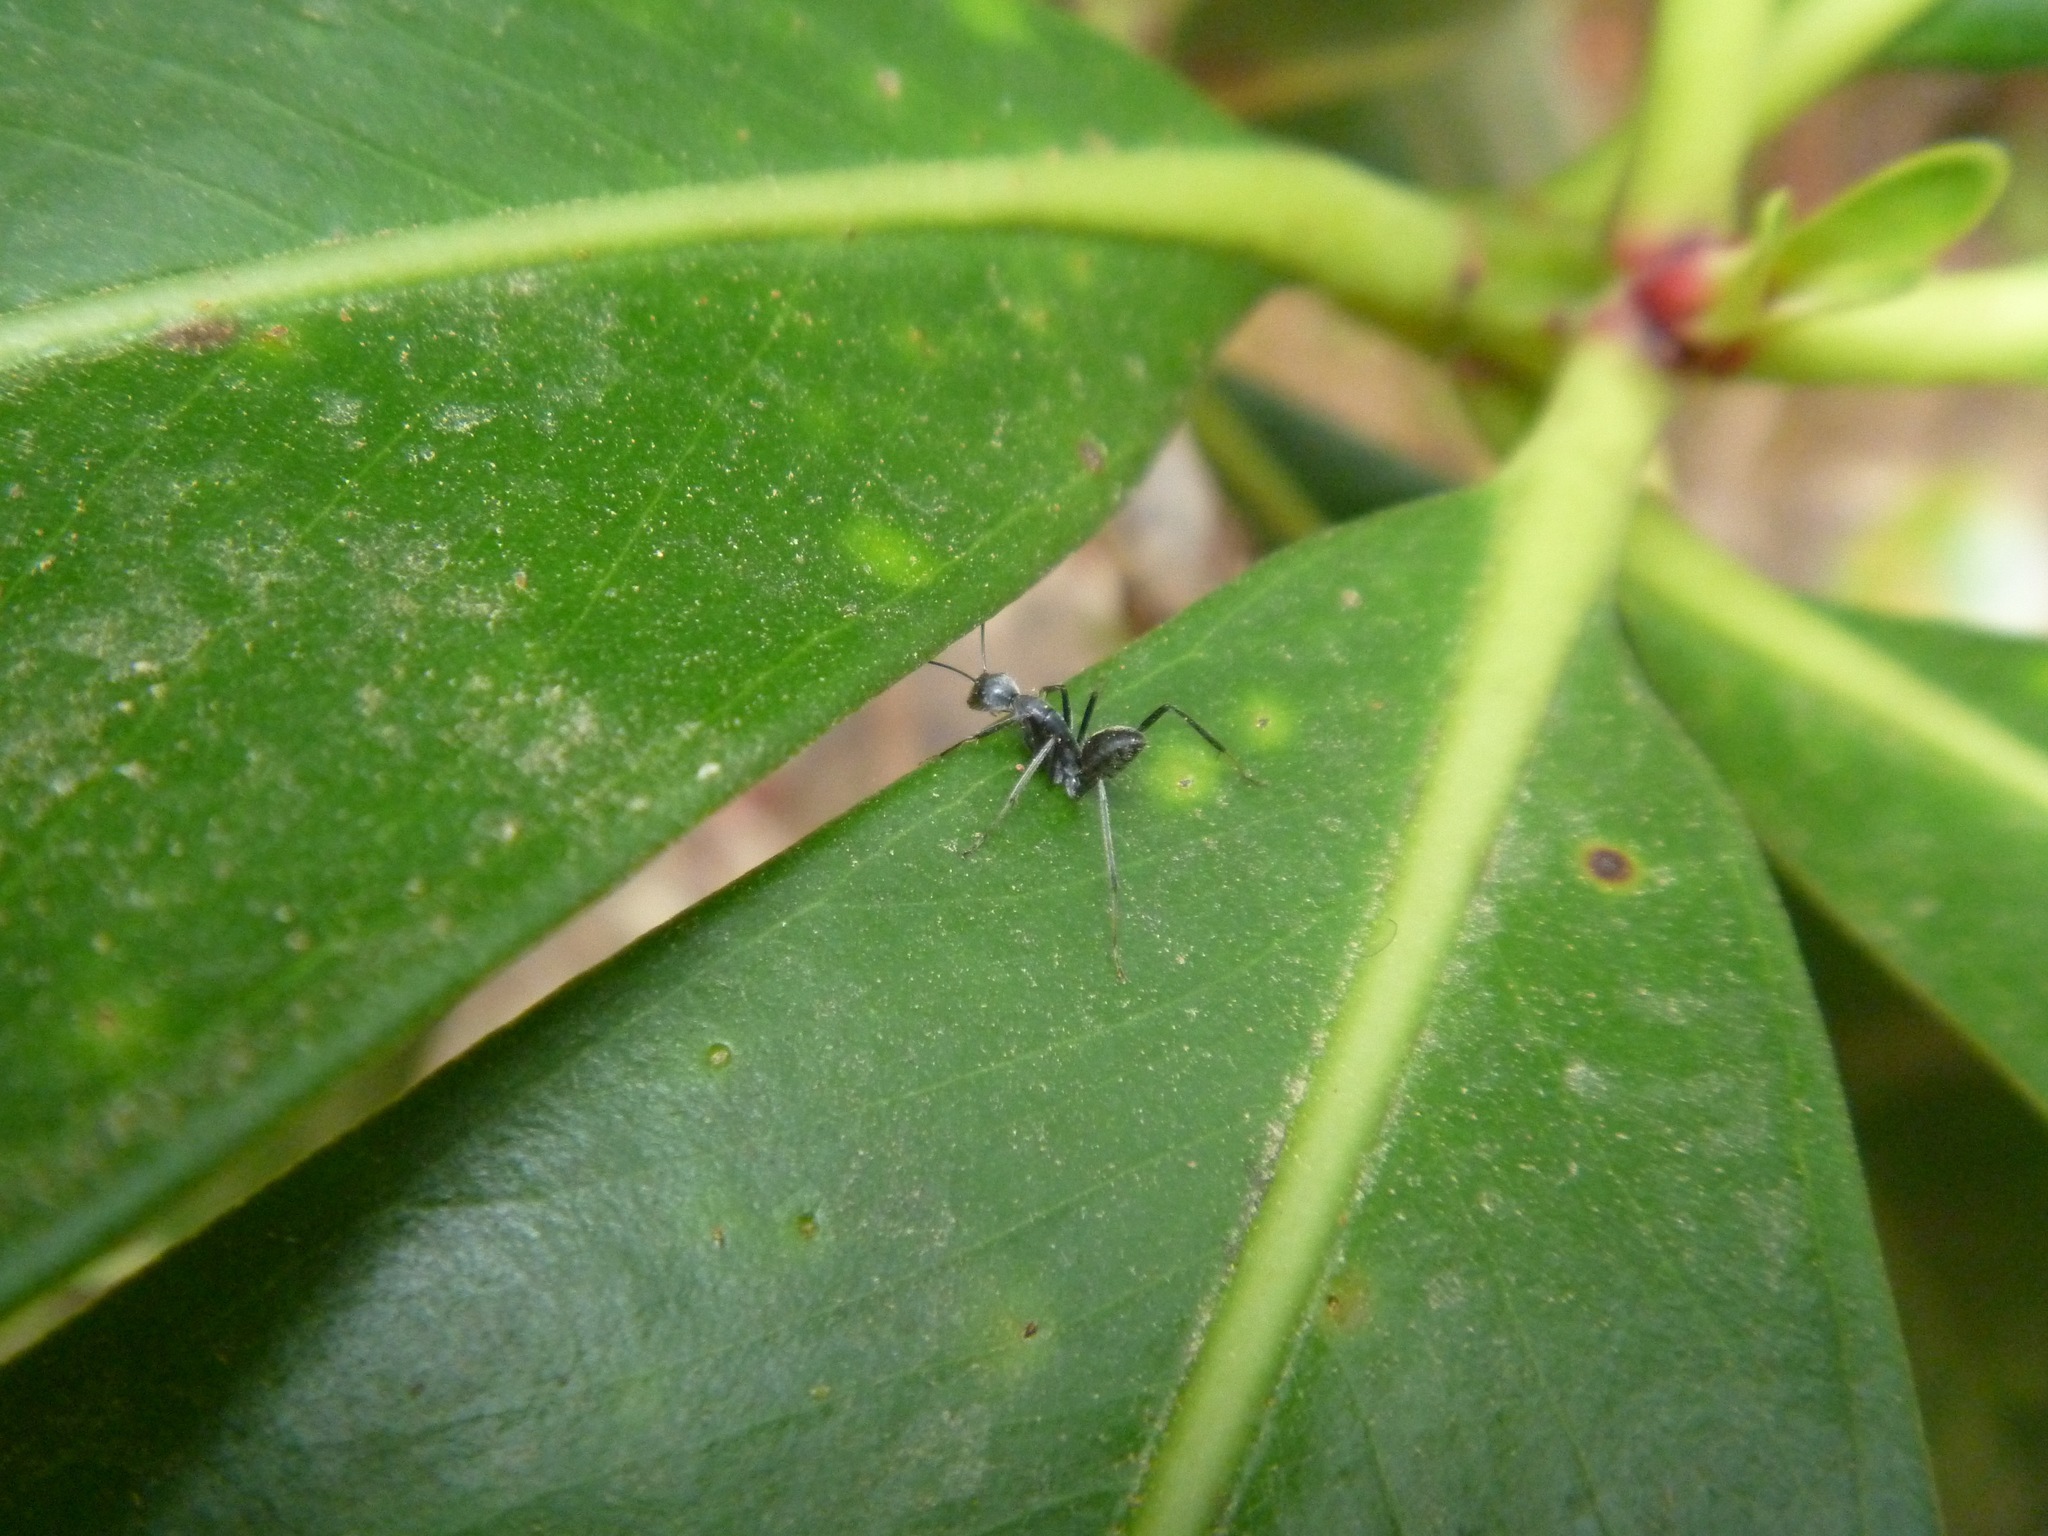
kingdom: Animalia
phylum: Arthropoda
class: Insecta
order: Hymenoptera
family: Formicidae
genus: Camponotus
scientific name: Camponotus gambeyi
